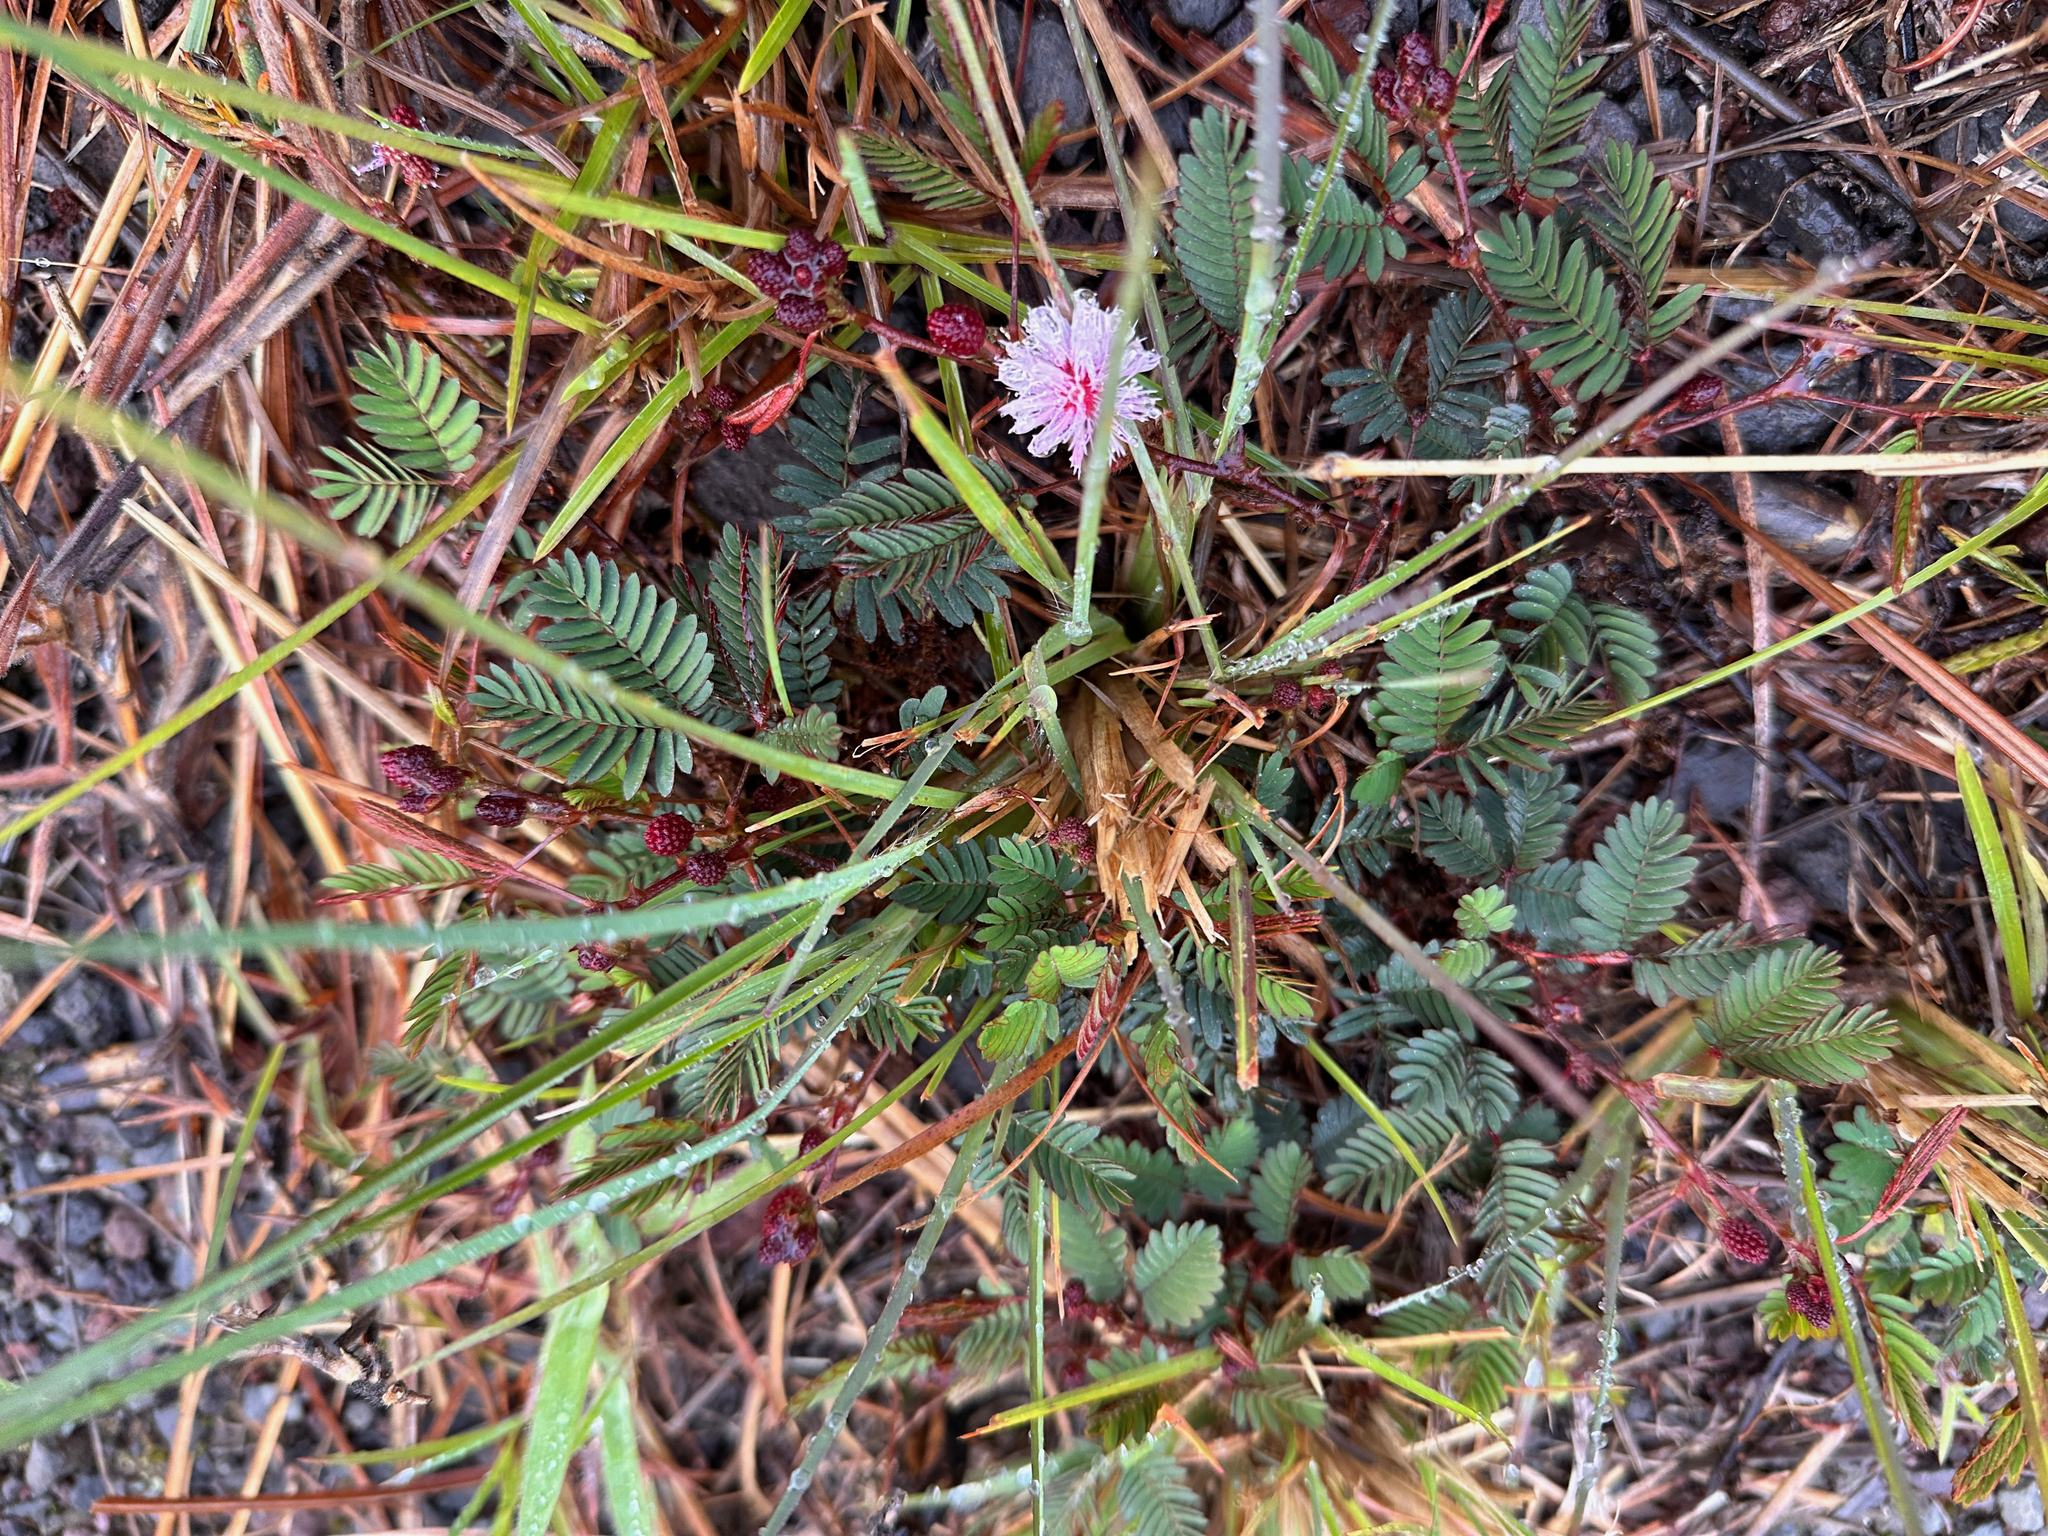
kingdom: Plantae
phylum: Tracheophyta
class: Magnoliopsida
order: Fabales
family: Fabaceae
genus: Mimosa
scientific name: Mimosa pudica
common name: Sensitive plant
